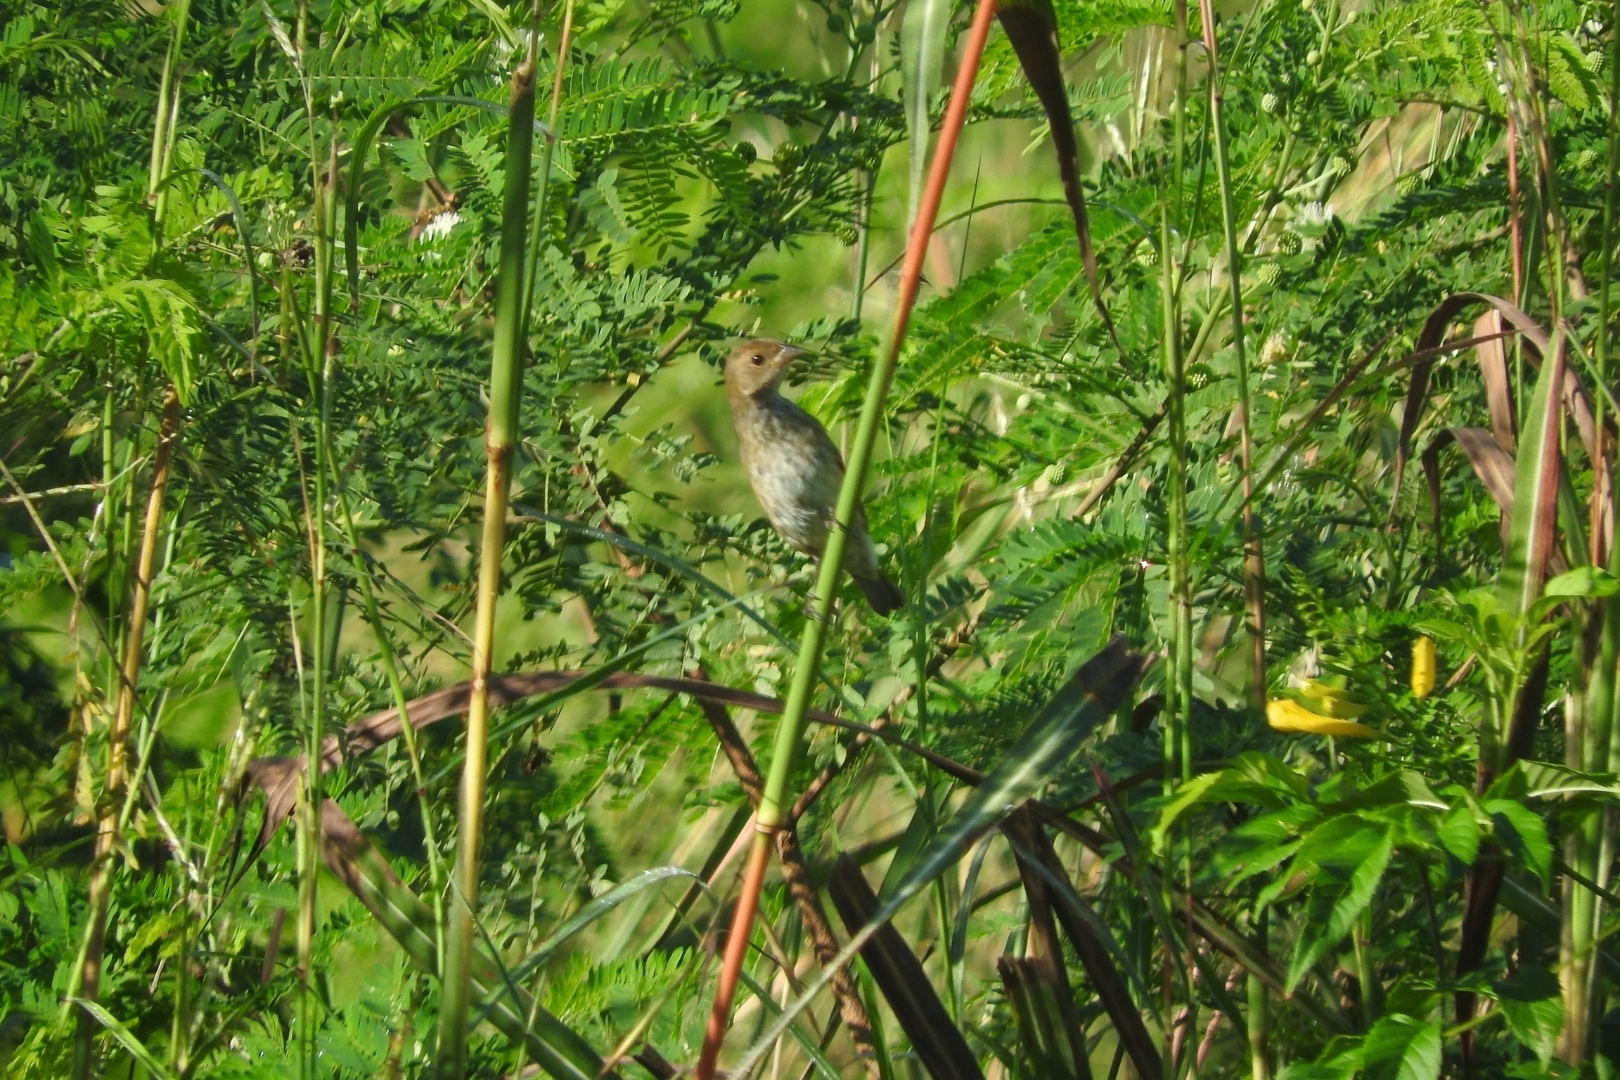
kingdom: Animalia
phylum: Chordata
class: Aves
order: Passeriformes
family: Cardinalidae
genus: Passerina
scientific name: Passerina cyanea
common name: Indigo bunting
